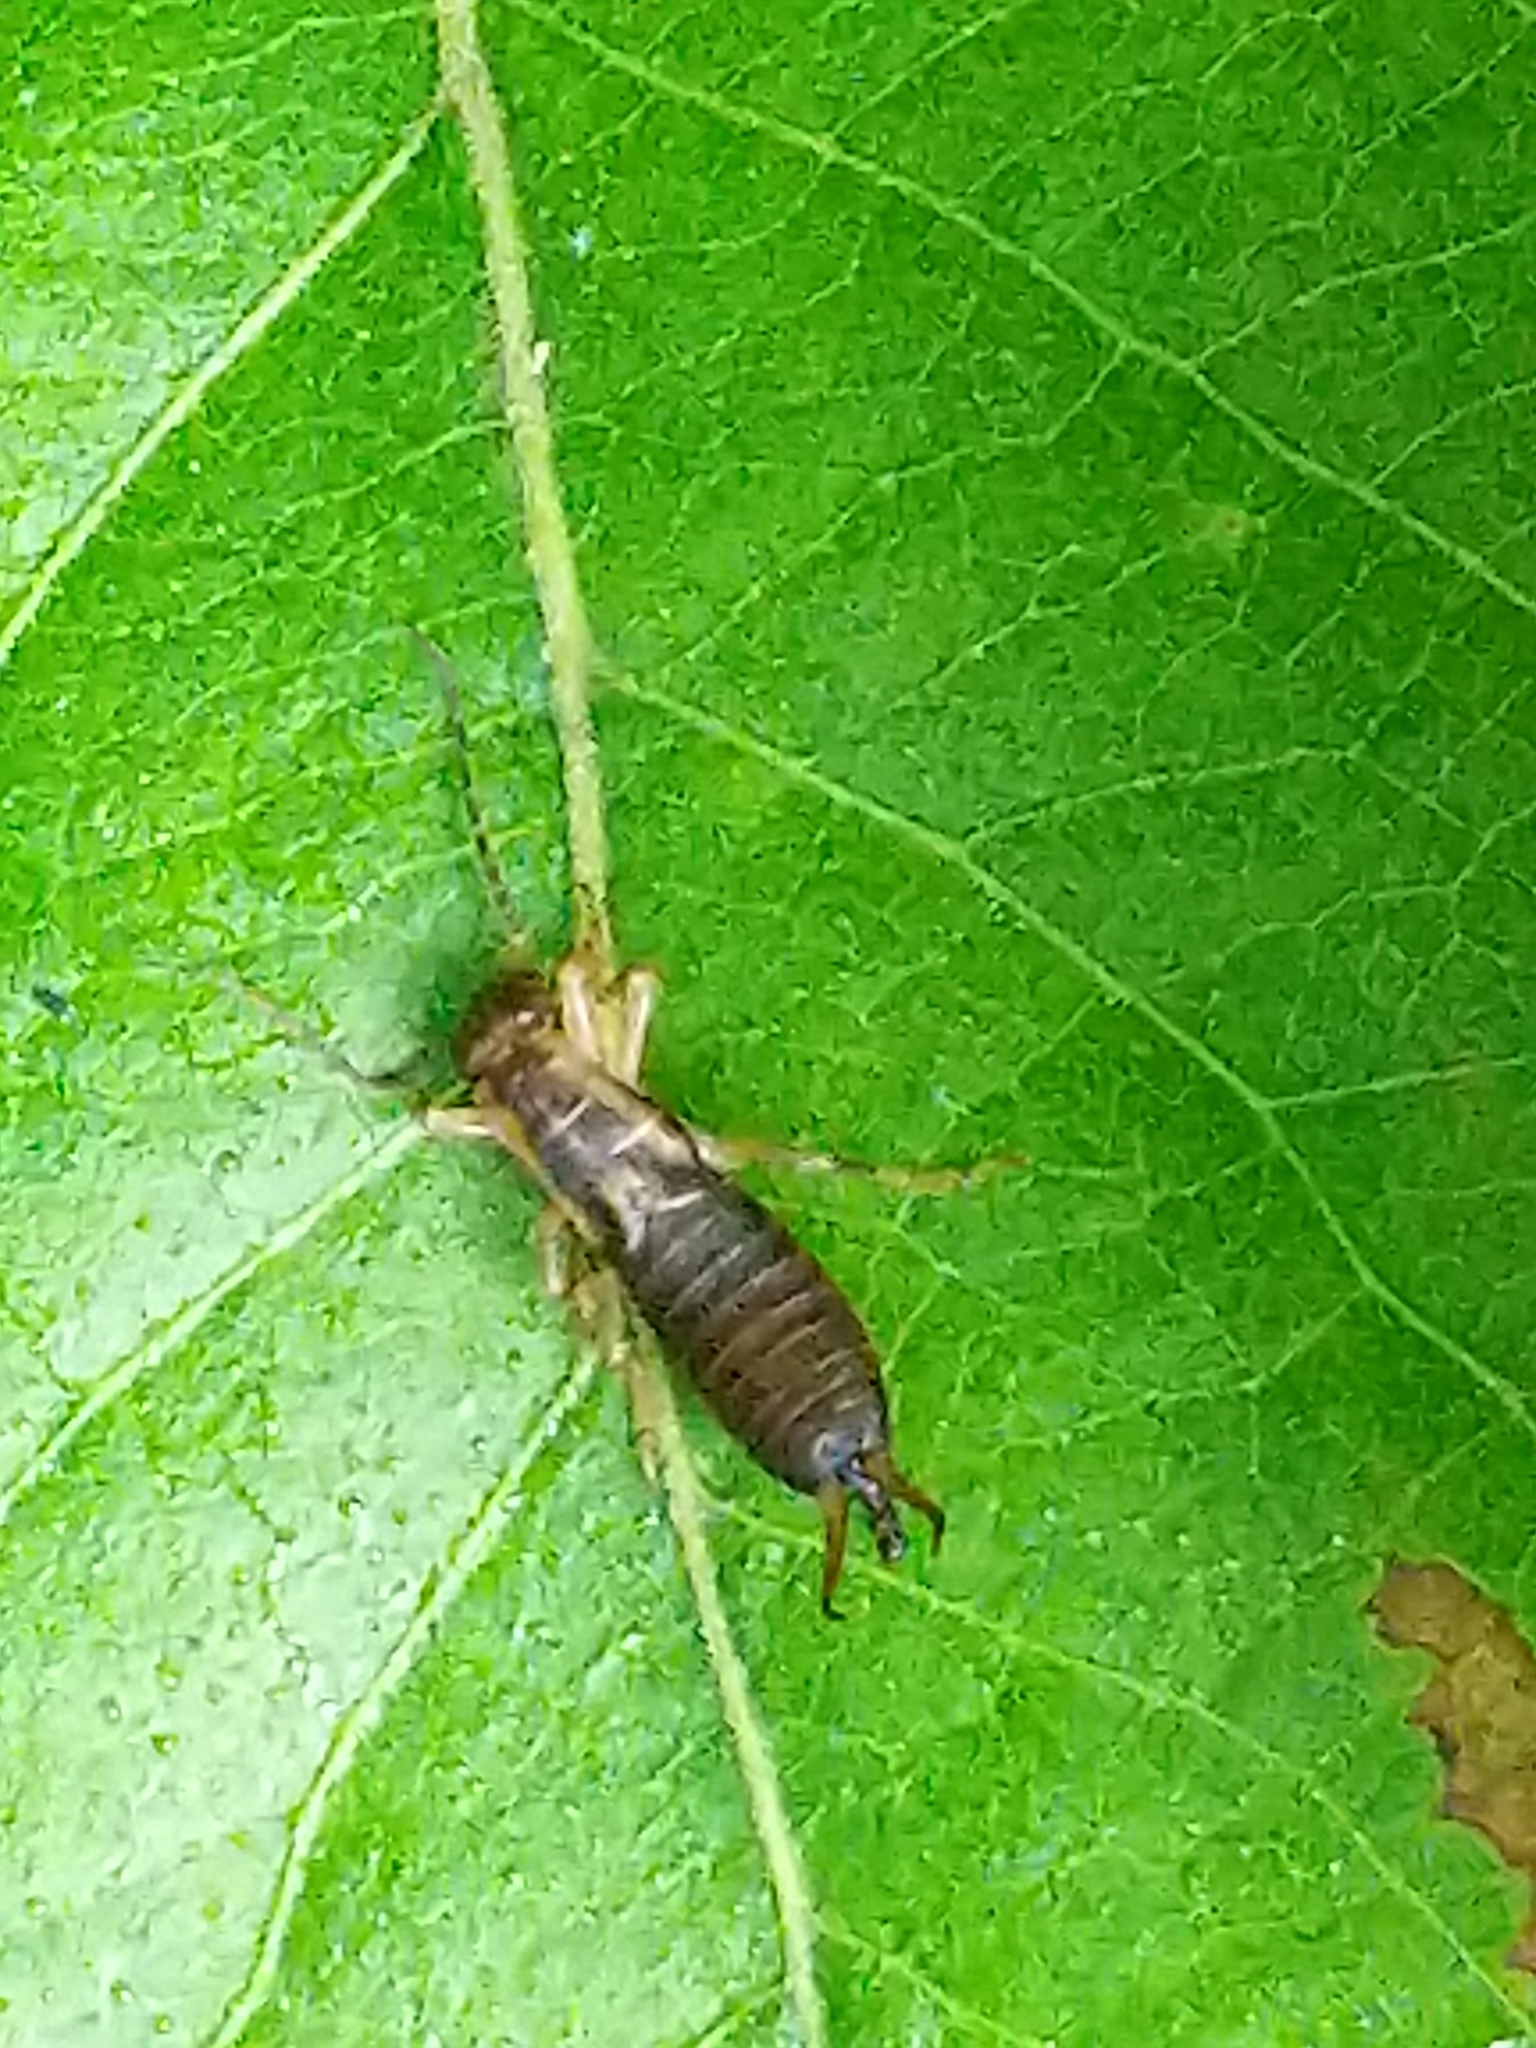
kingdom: Animalia
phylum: Arthropoda
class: Insecta
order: Dermaptera
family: Forficulidae
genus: Forficula
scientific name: Forficula
